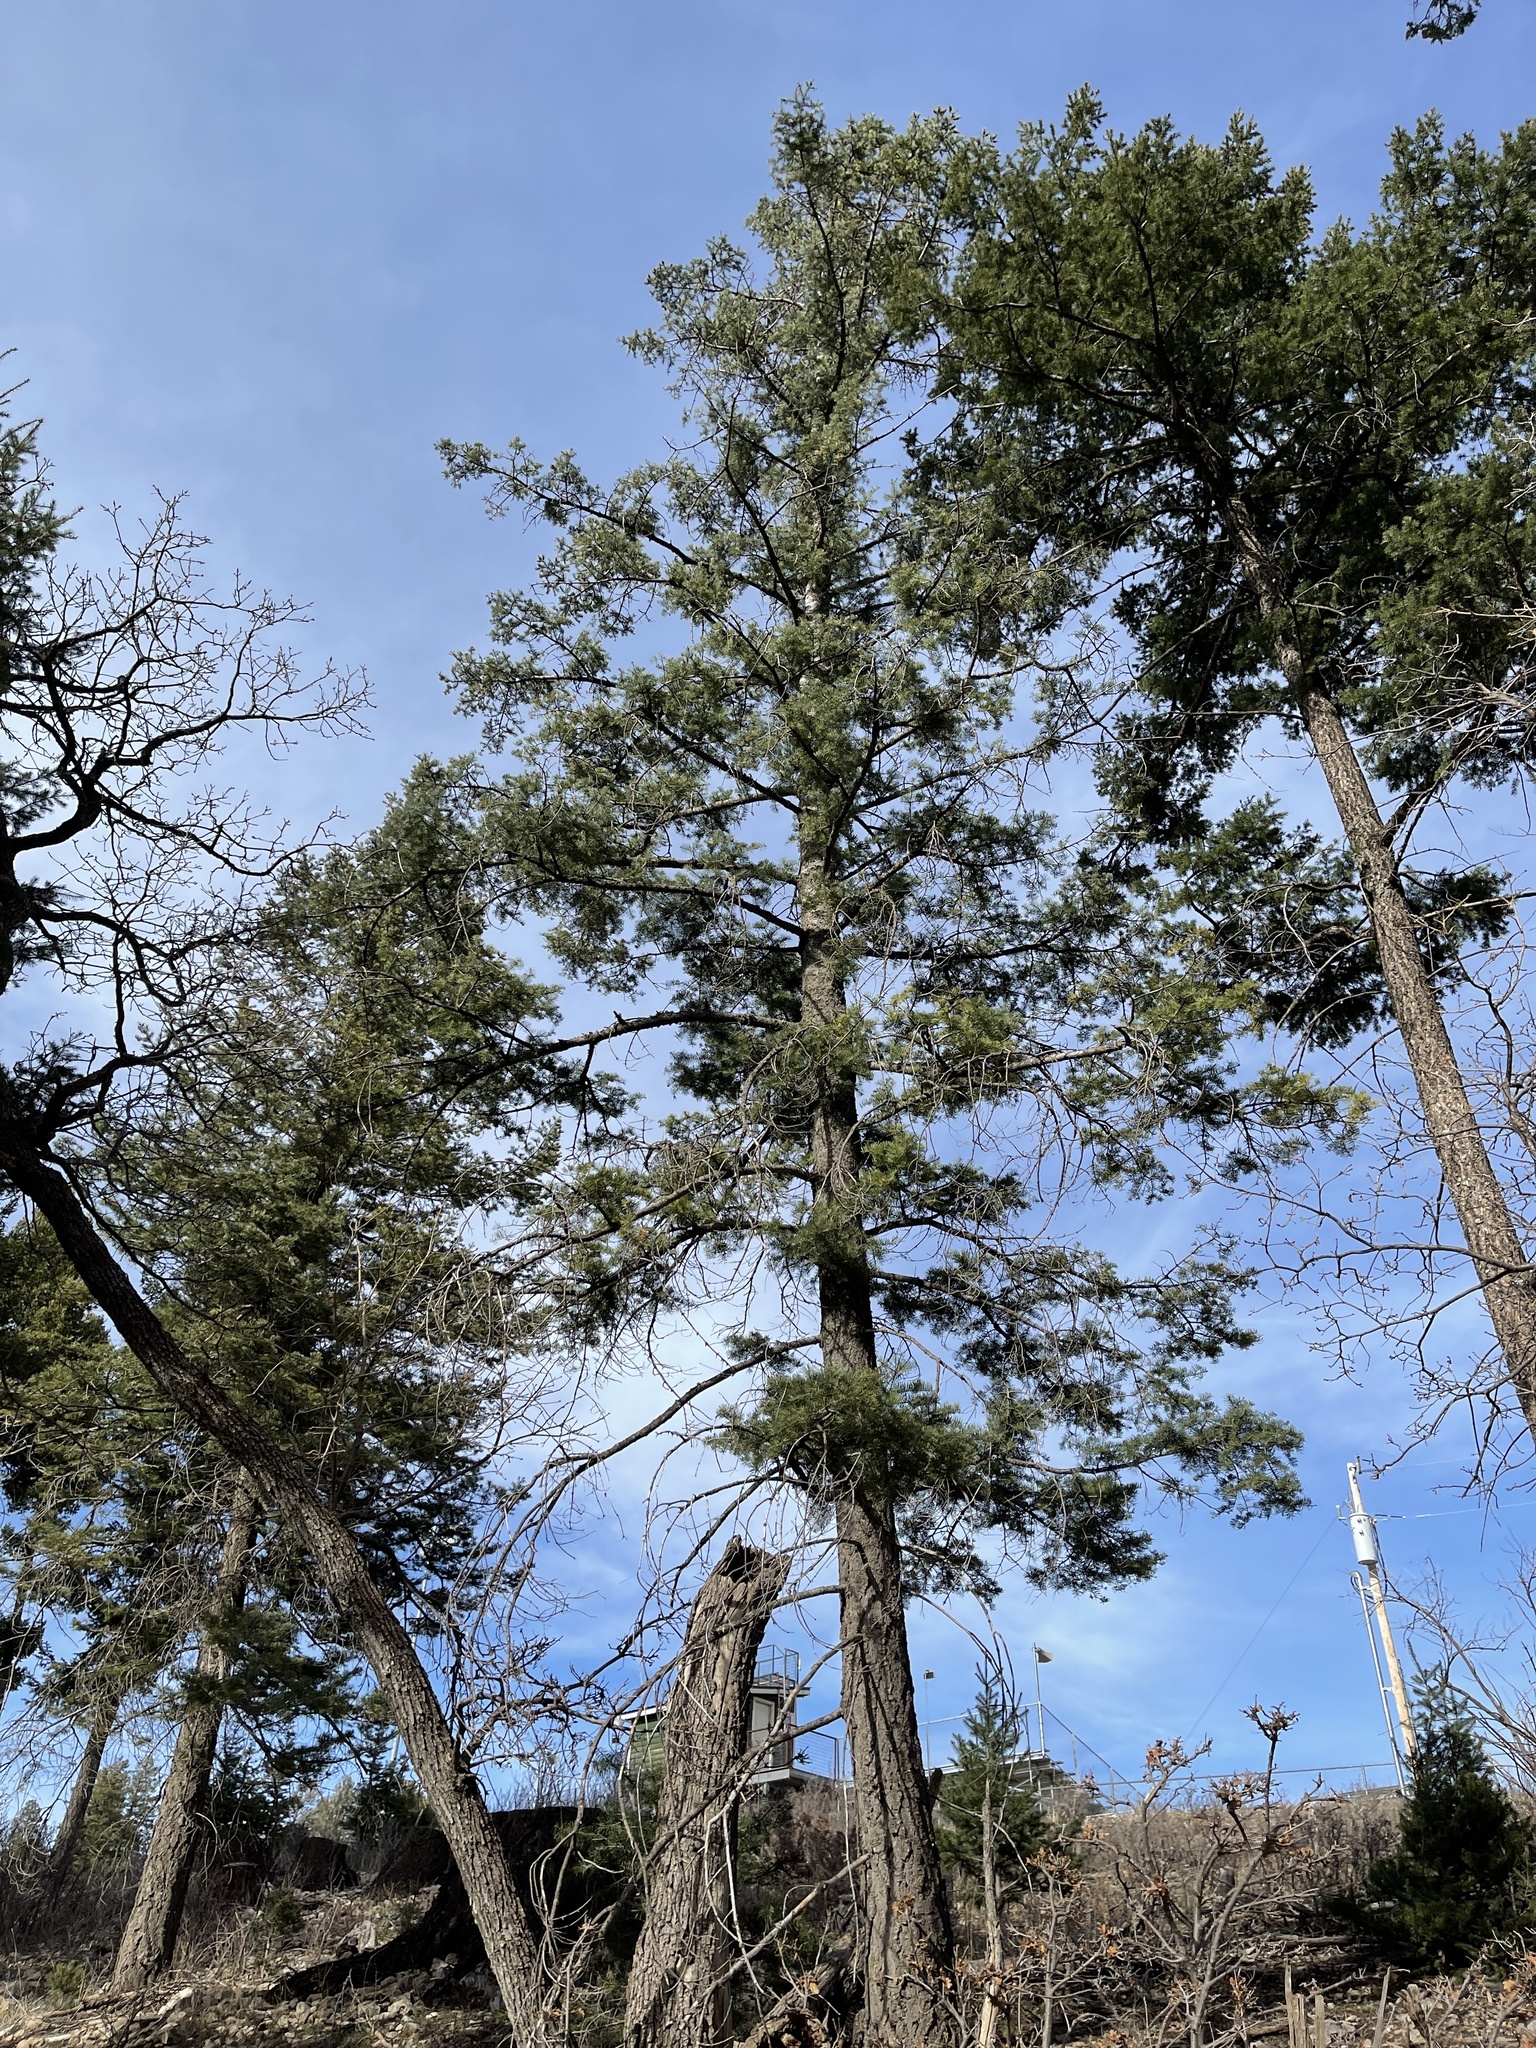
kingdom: Plantae
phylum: Tracheophyta
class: Pinopsida
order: Pinales
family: Pinaceae
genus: Pinus
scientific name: Pinus strobiformis
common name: Southwestern white pine
